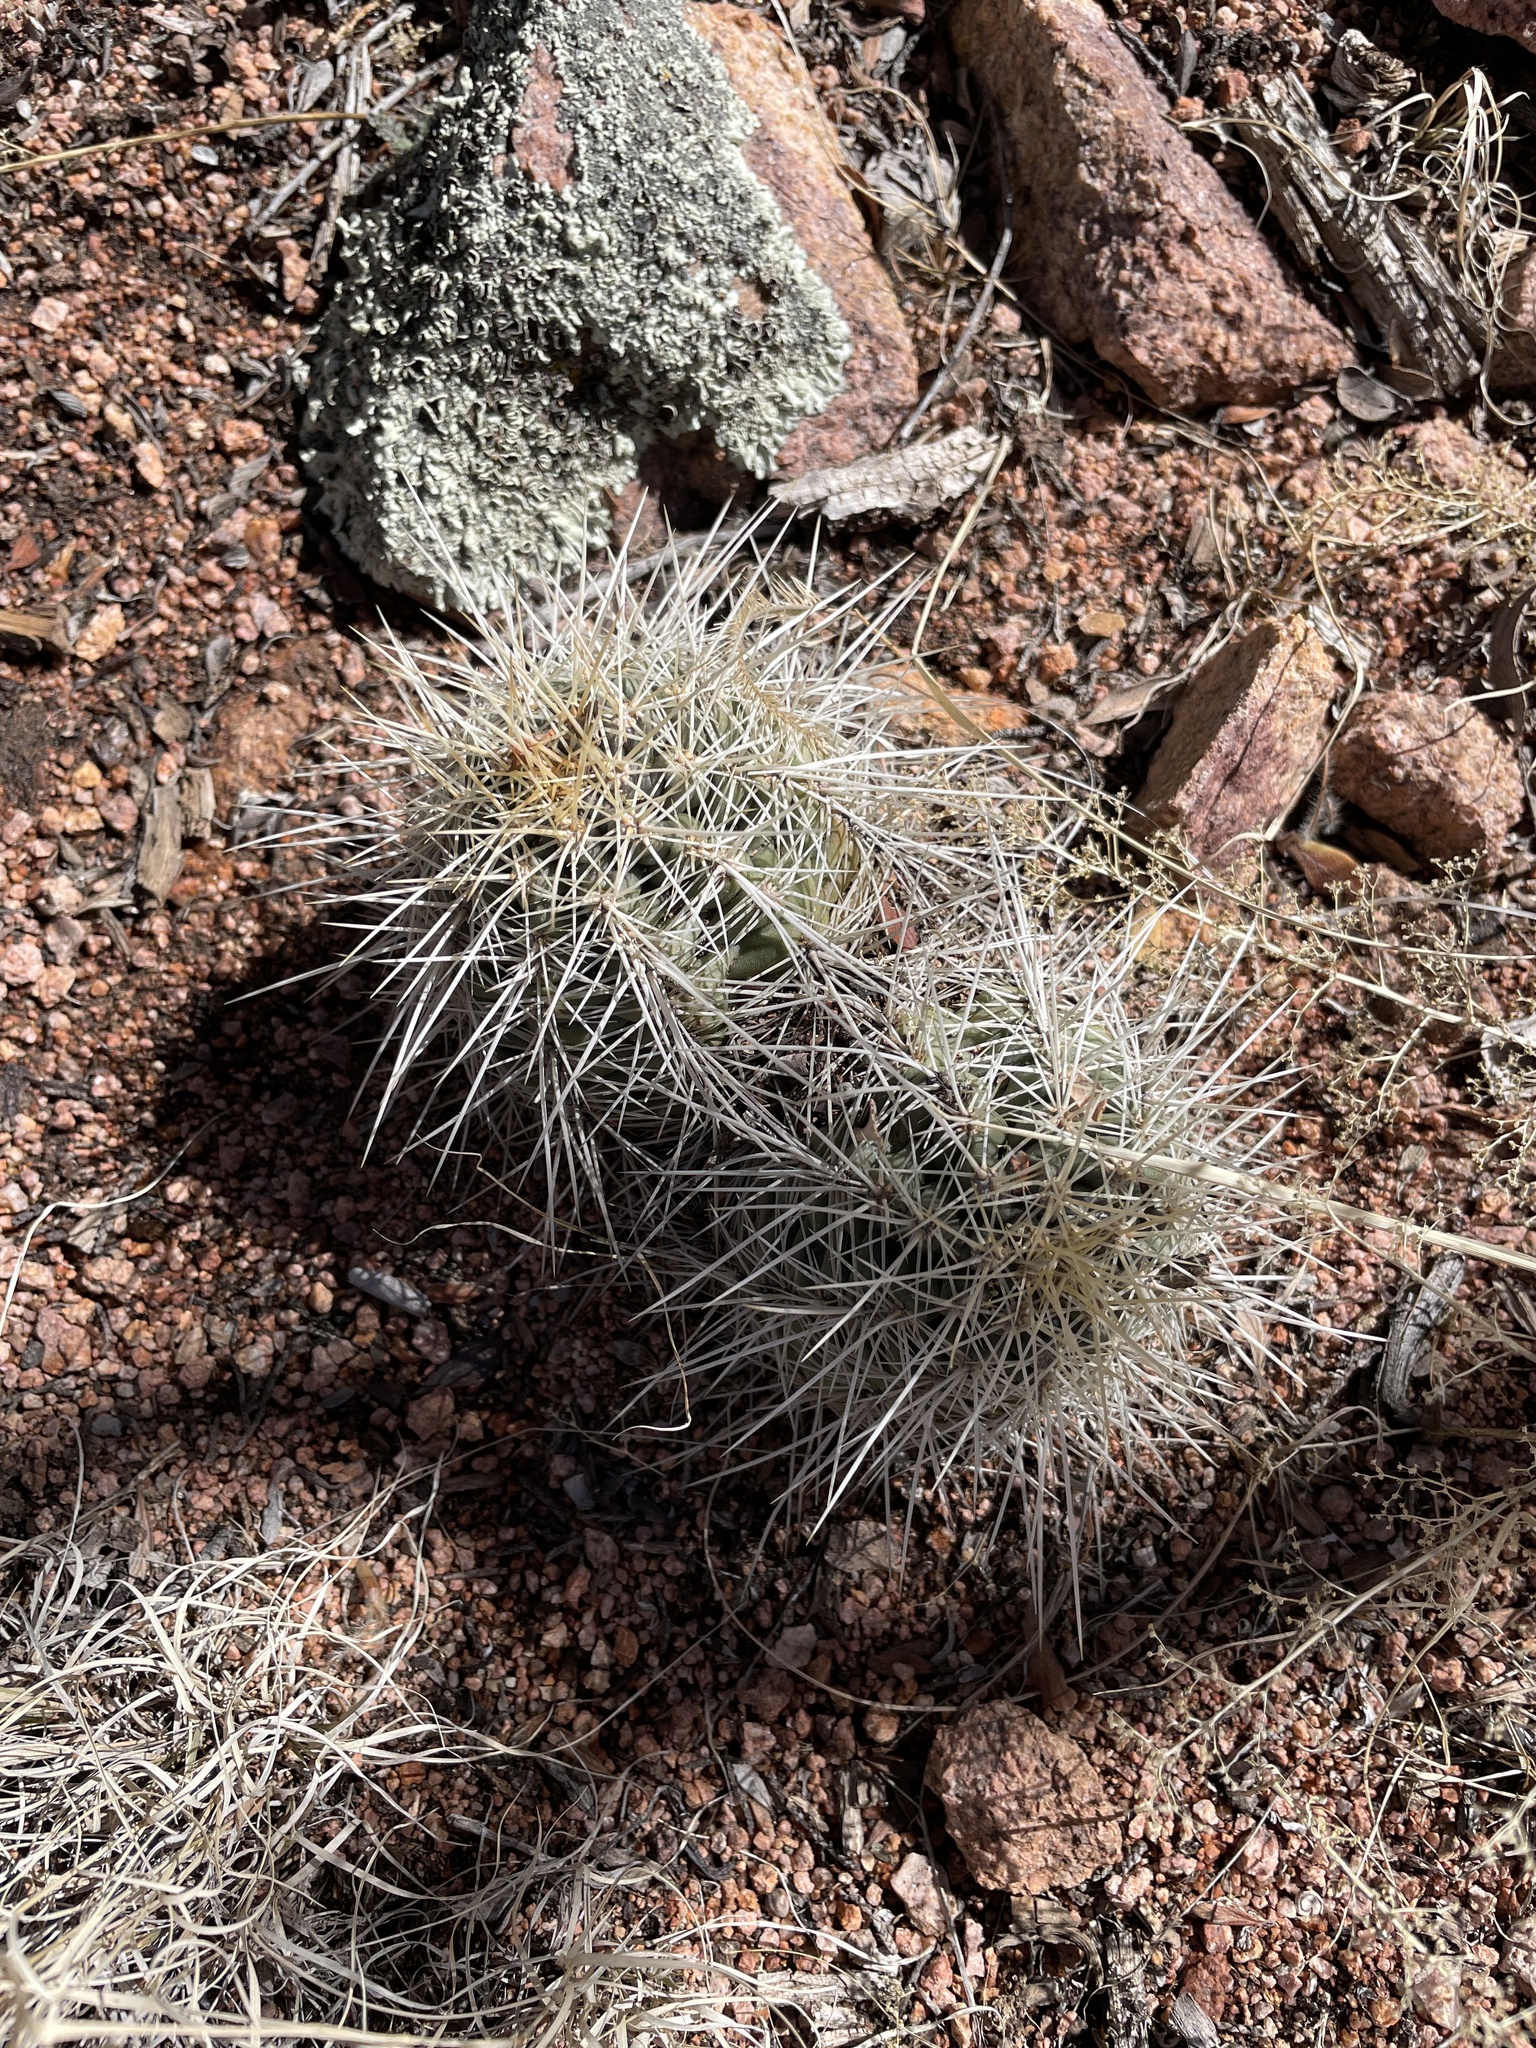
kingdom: Plantae
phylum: Tracheophyta
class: Magnoliopsida
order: Caryophyllales
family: Cactaceae
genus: Echinocereus
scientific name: Echinocereus coccineus
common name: Scarlet hedgehog cactus
